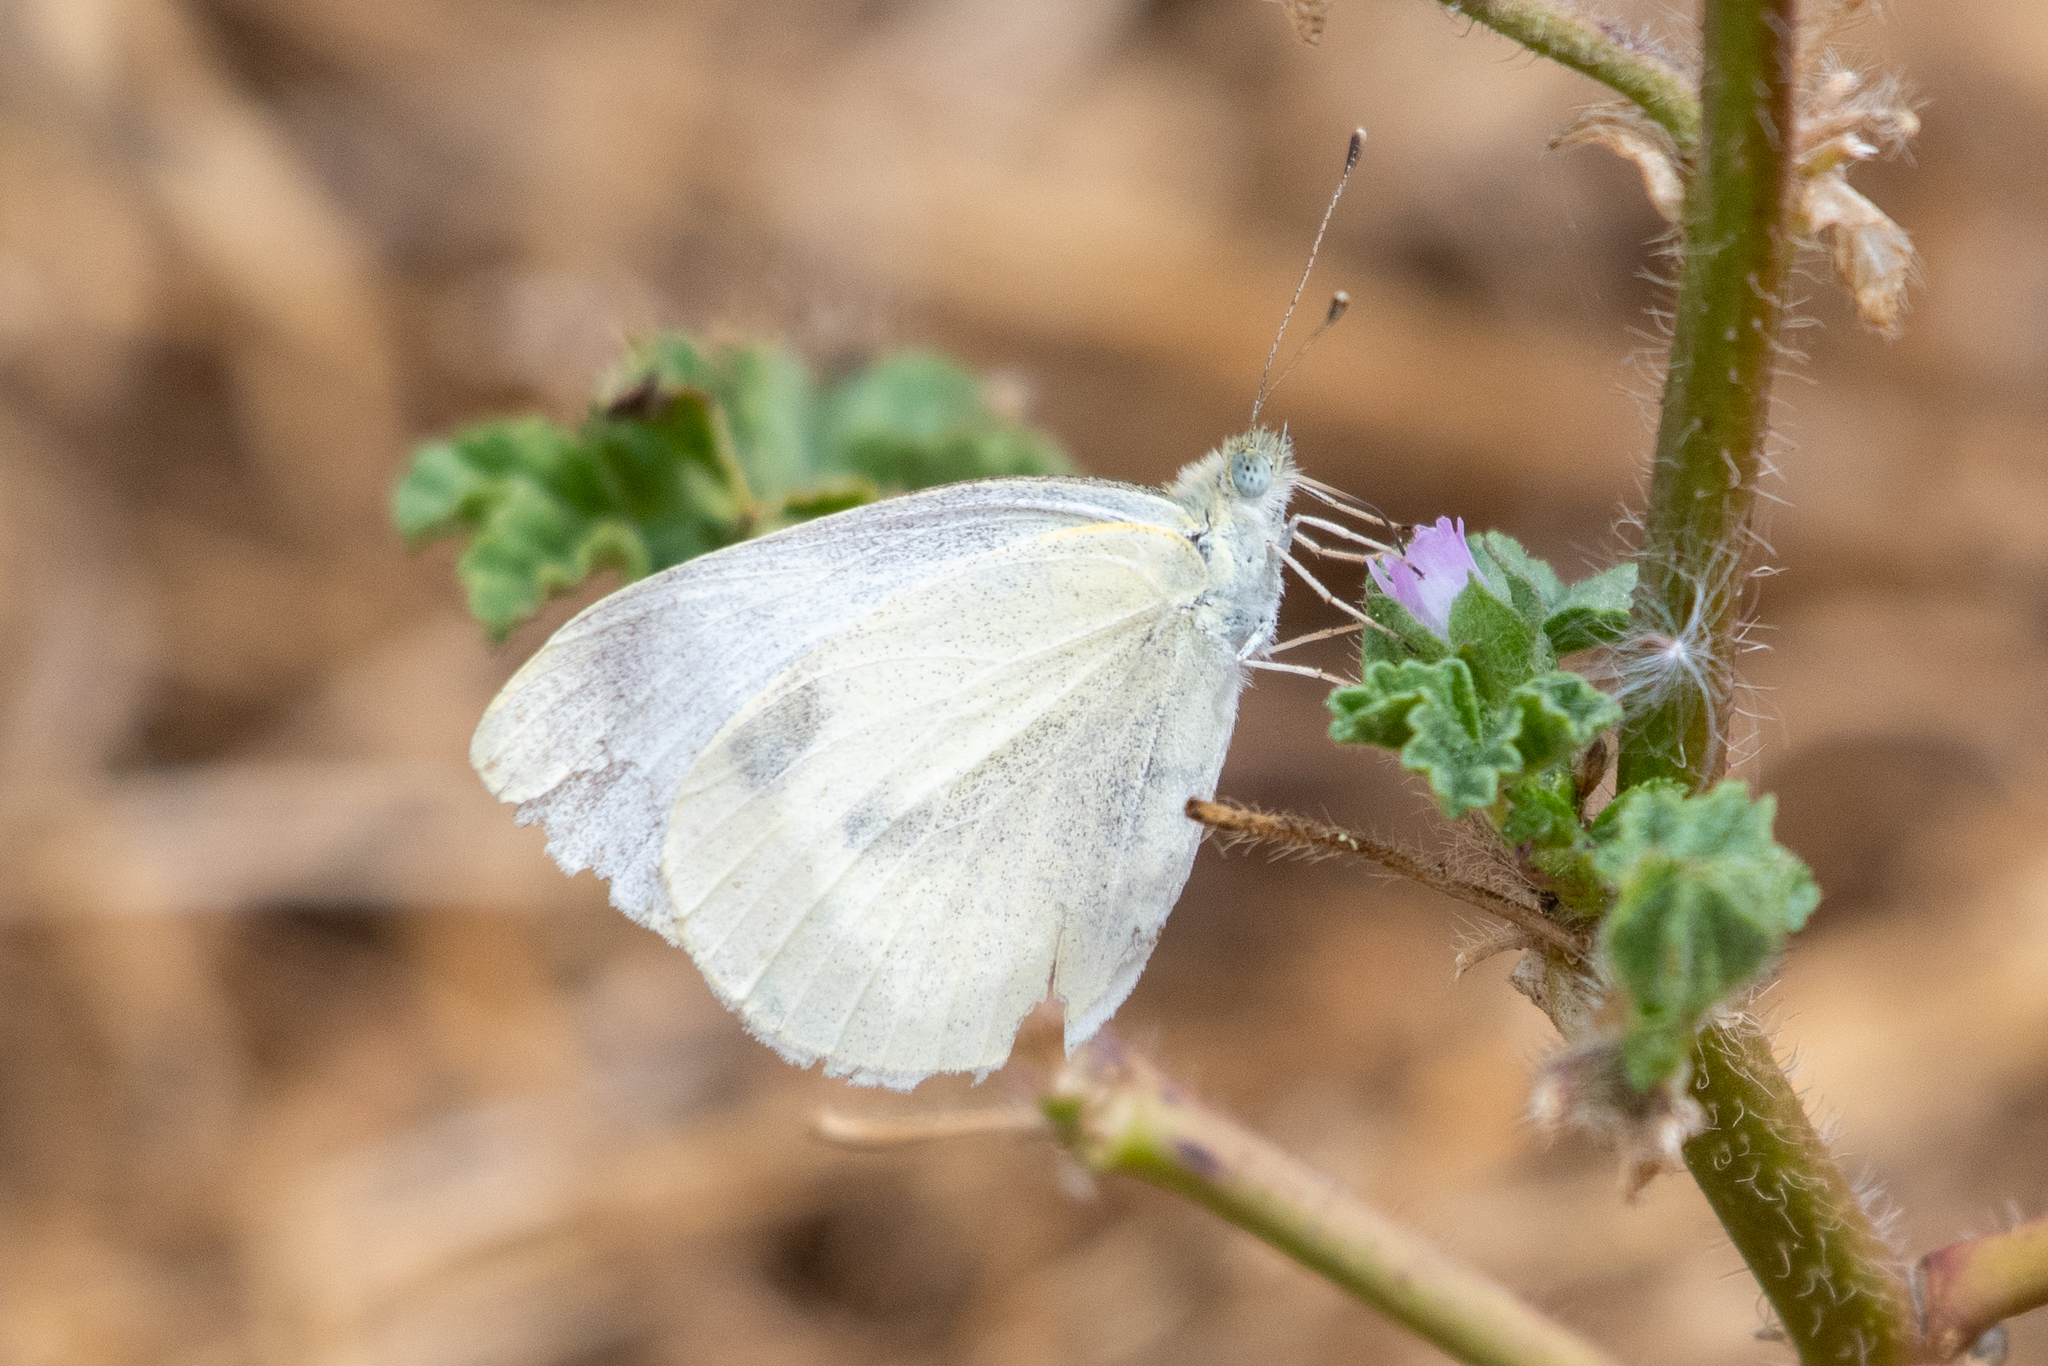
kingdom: Animalia
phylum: Arthropoda
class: Insecta
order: Lepidoptera
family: Pieridae
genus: Pieris
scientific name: Pieris rapae
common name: Small white
